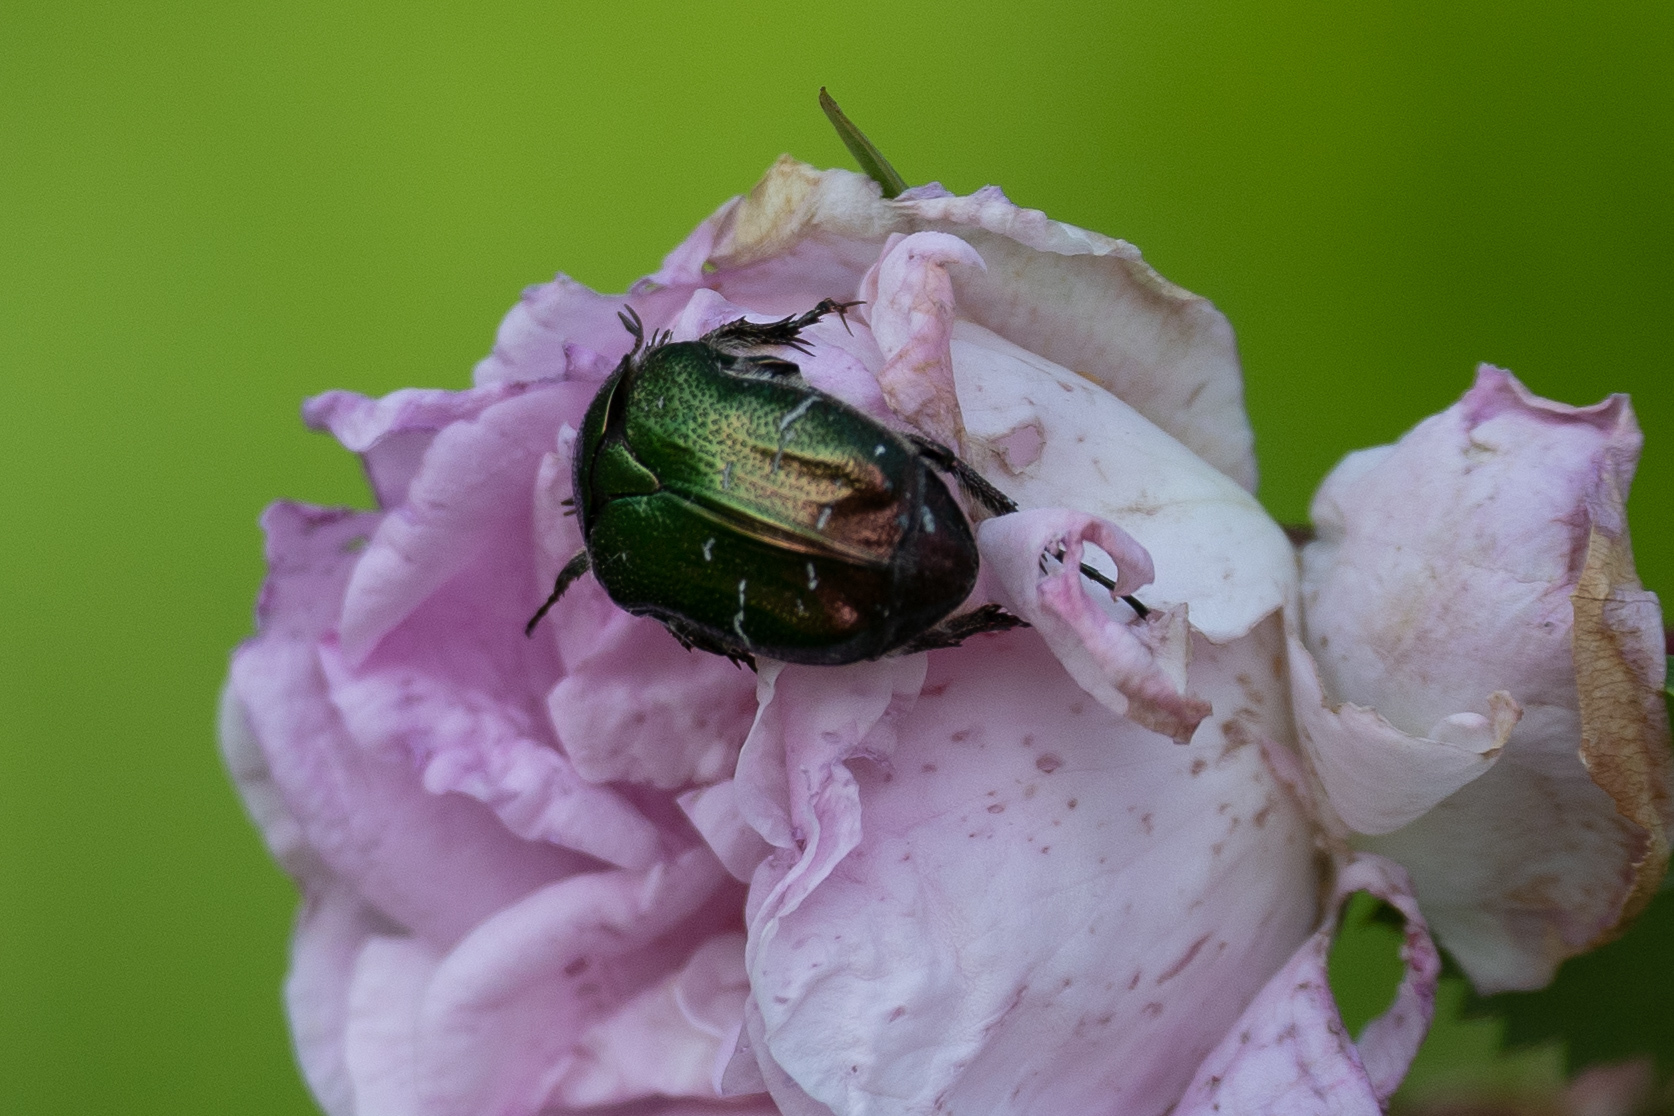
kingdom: Animalia
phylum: Arthropoda
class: Insecta
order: Coleoptera
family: Scarabaeidae
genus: Cetonia
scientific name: Cetonia aurata
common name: Rose chafer
